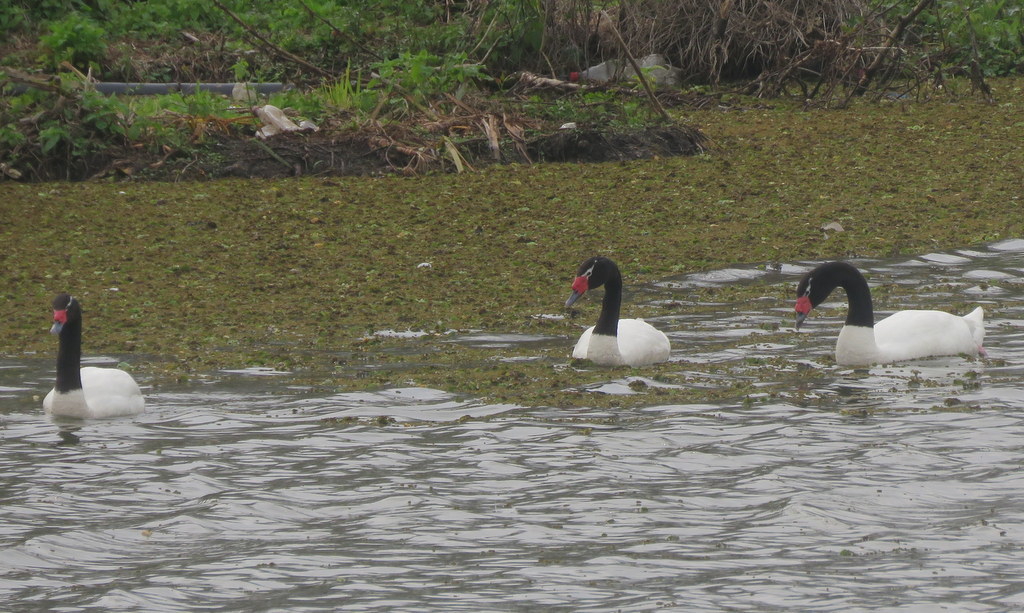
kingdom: Animalia
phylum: Chordata
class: Aves
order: Anseriformes
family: Anatidae
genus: Cygnus
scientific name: Cygnus melancoryphus
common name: Black-necked swan
